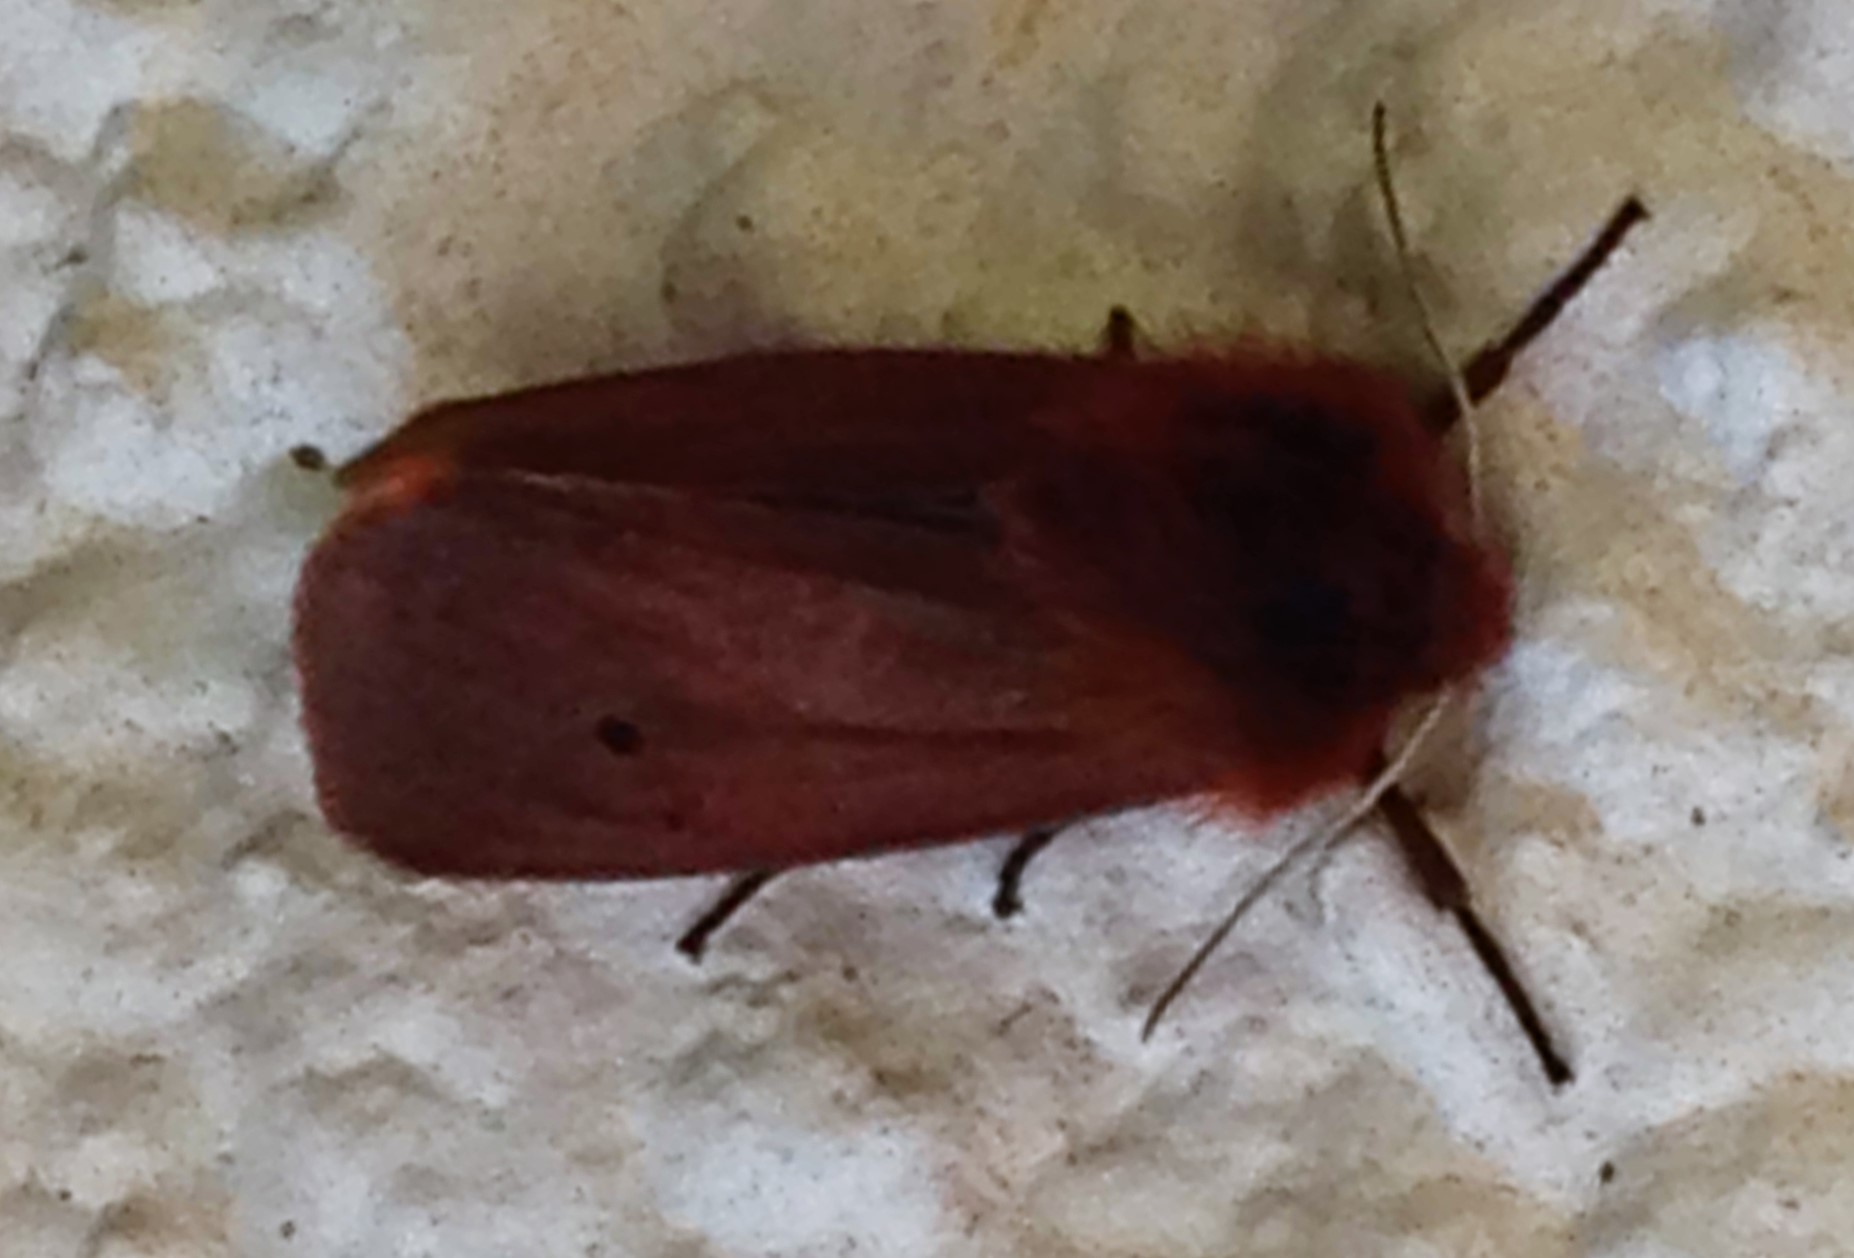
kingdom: Animalia
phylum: Arthropoda
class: Insecta
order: Lepidoptera
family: Erebidae
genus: Phragmatobia
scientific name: Phragmatobia fuliginosa
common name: Ruby tiger
